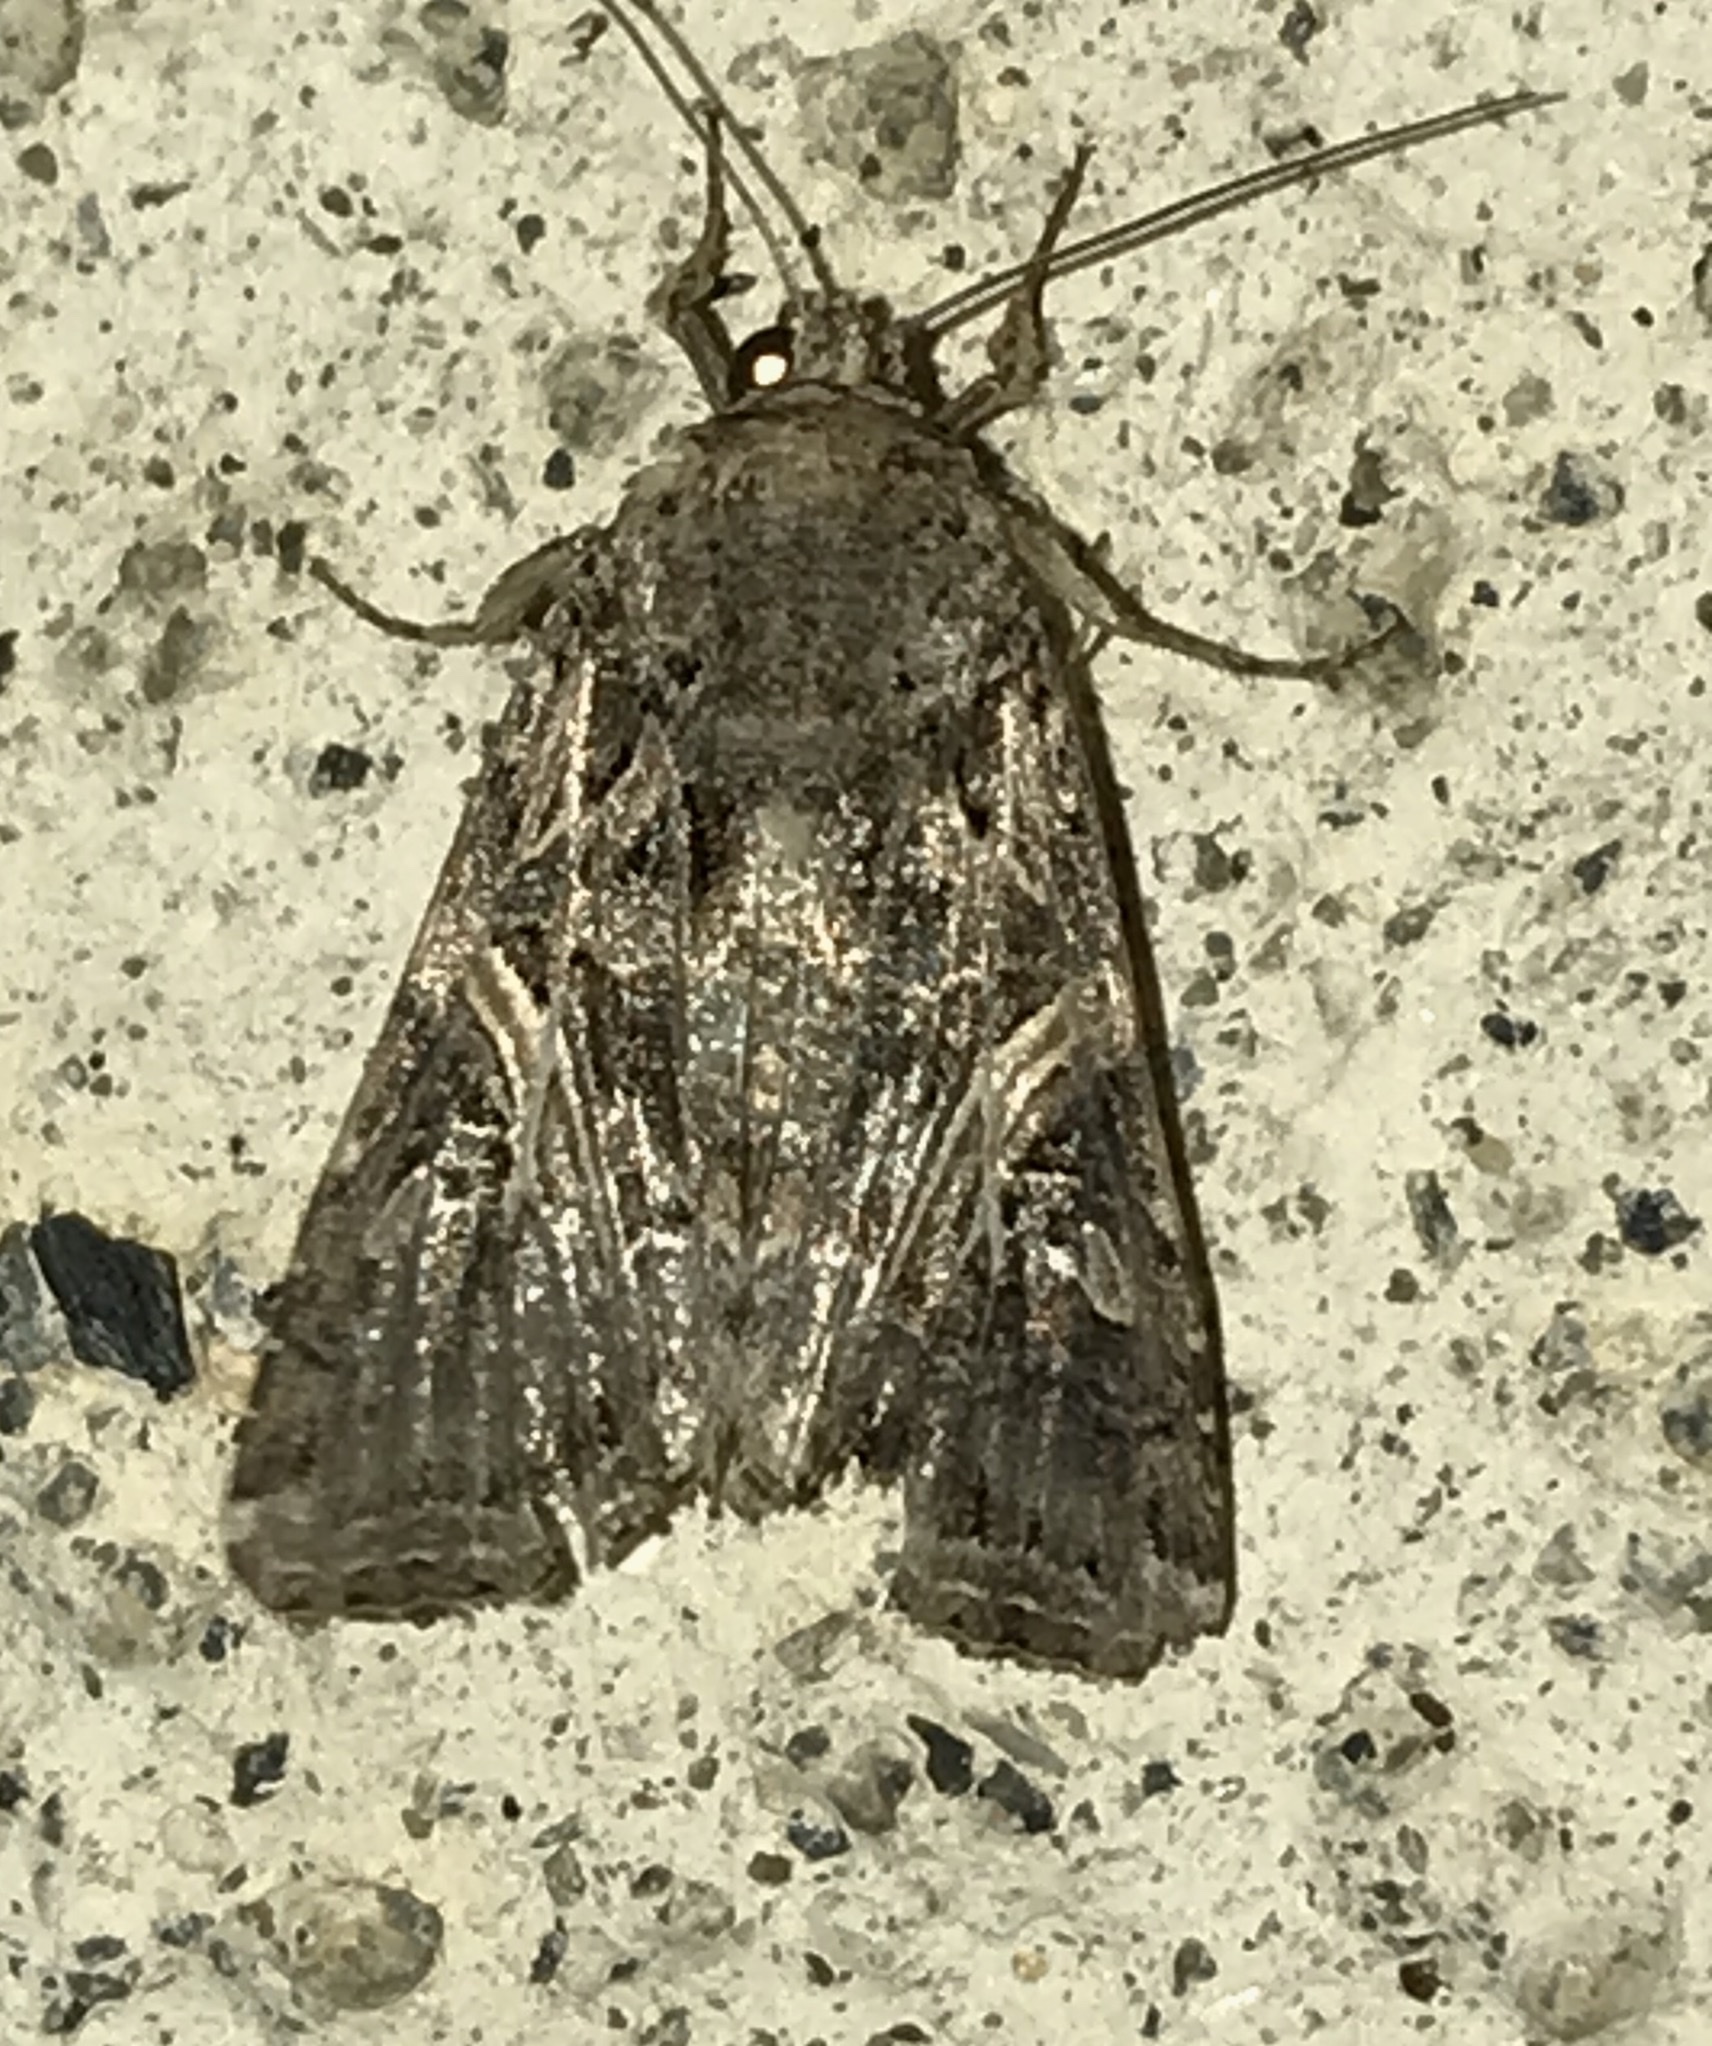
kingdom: Animalia
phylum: Arthropoda
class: Insecta
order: Lepidoptera
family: Noctuidae
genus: Spodoptera
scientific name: Spodoptera ornithogalli
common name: Yellow-striped armyworm
